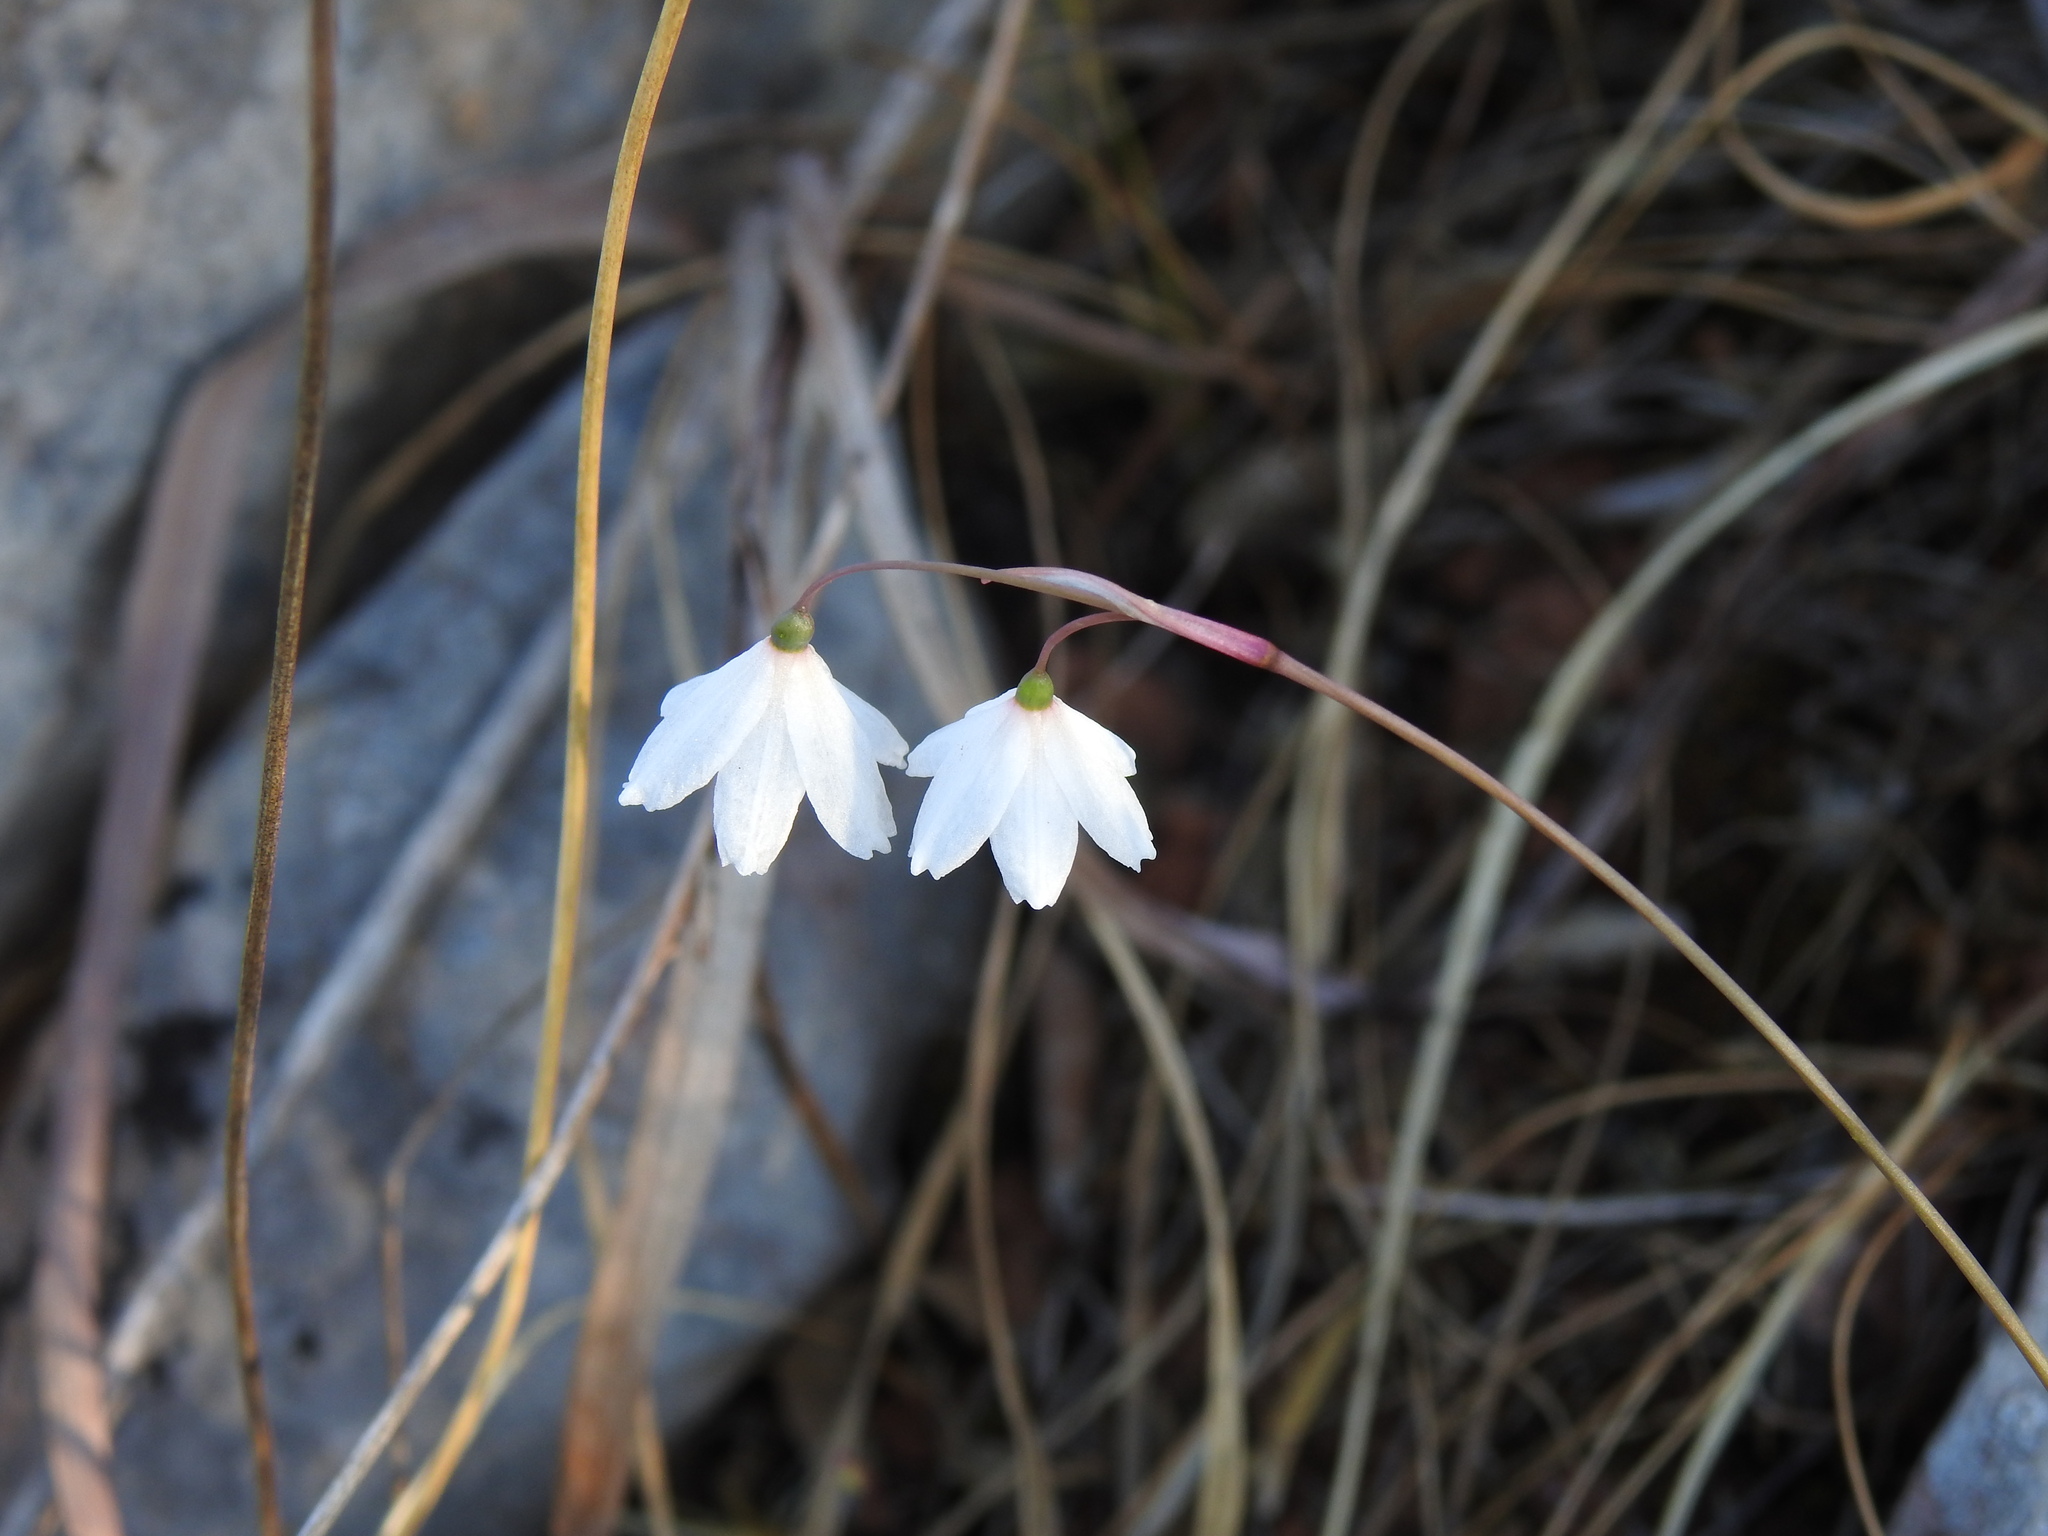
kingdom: Plantae
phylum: Tracheophyta
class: Liliopsida
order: Asparagales
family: Amaryllidaceae
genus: Acis
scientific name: Acis autumnalis
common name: Autumn snowflake
